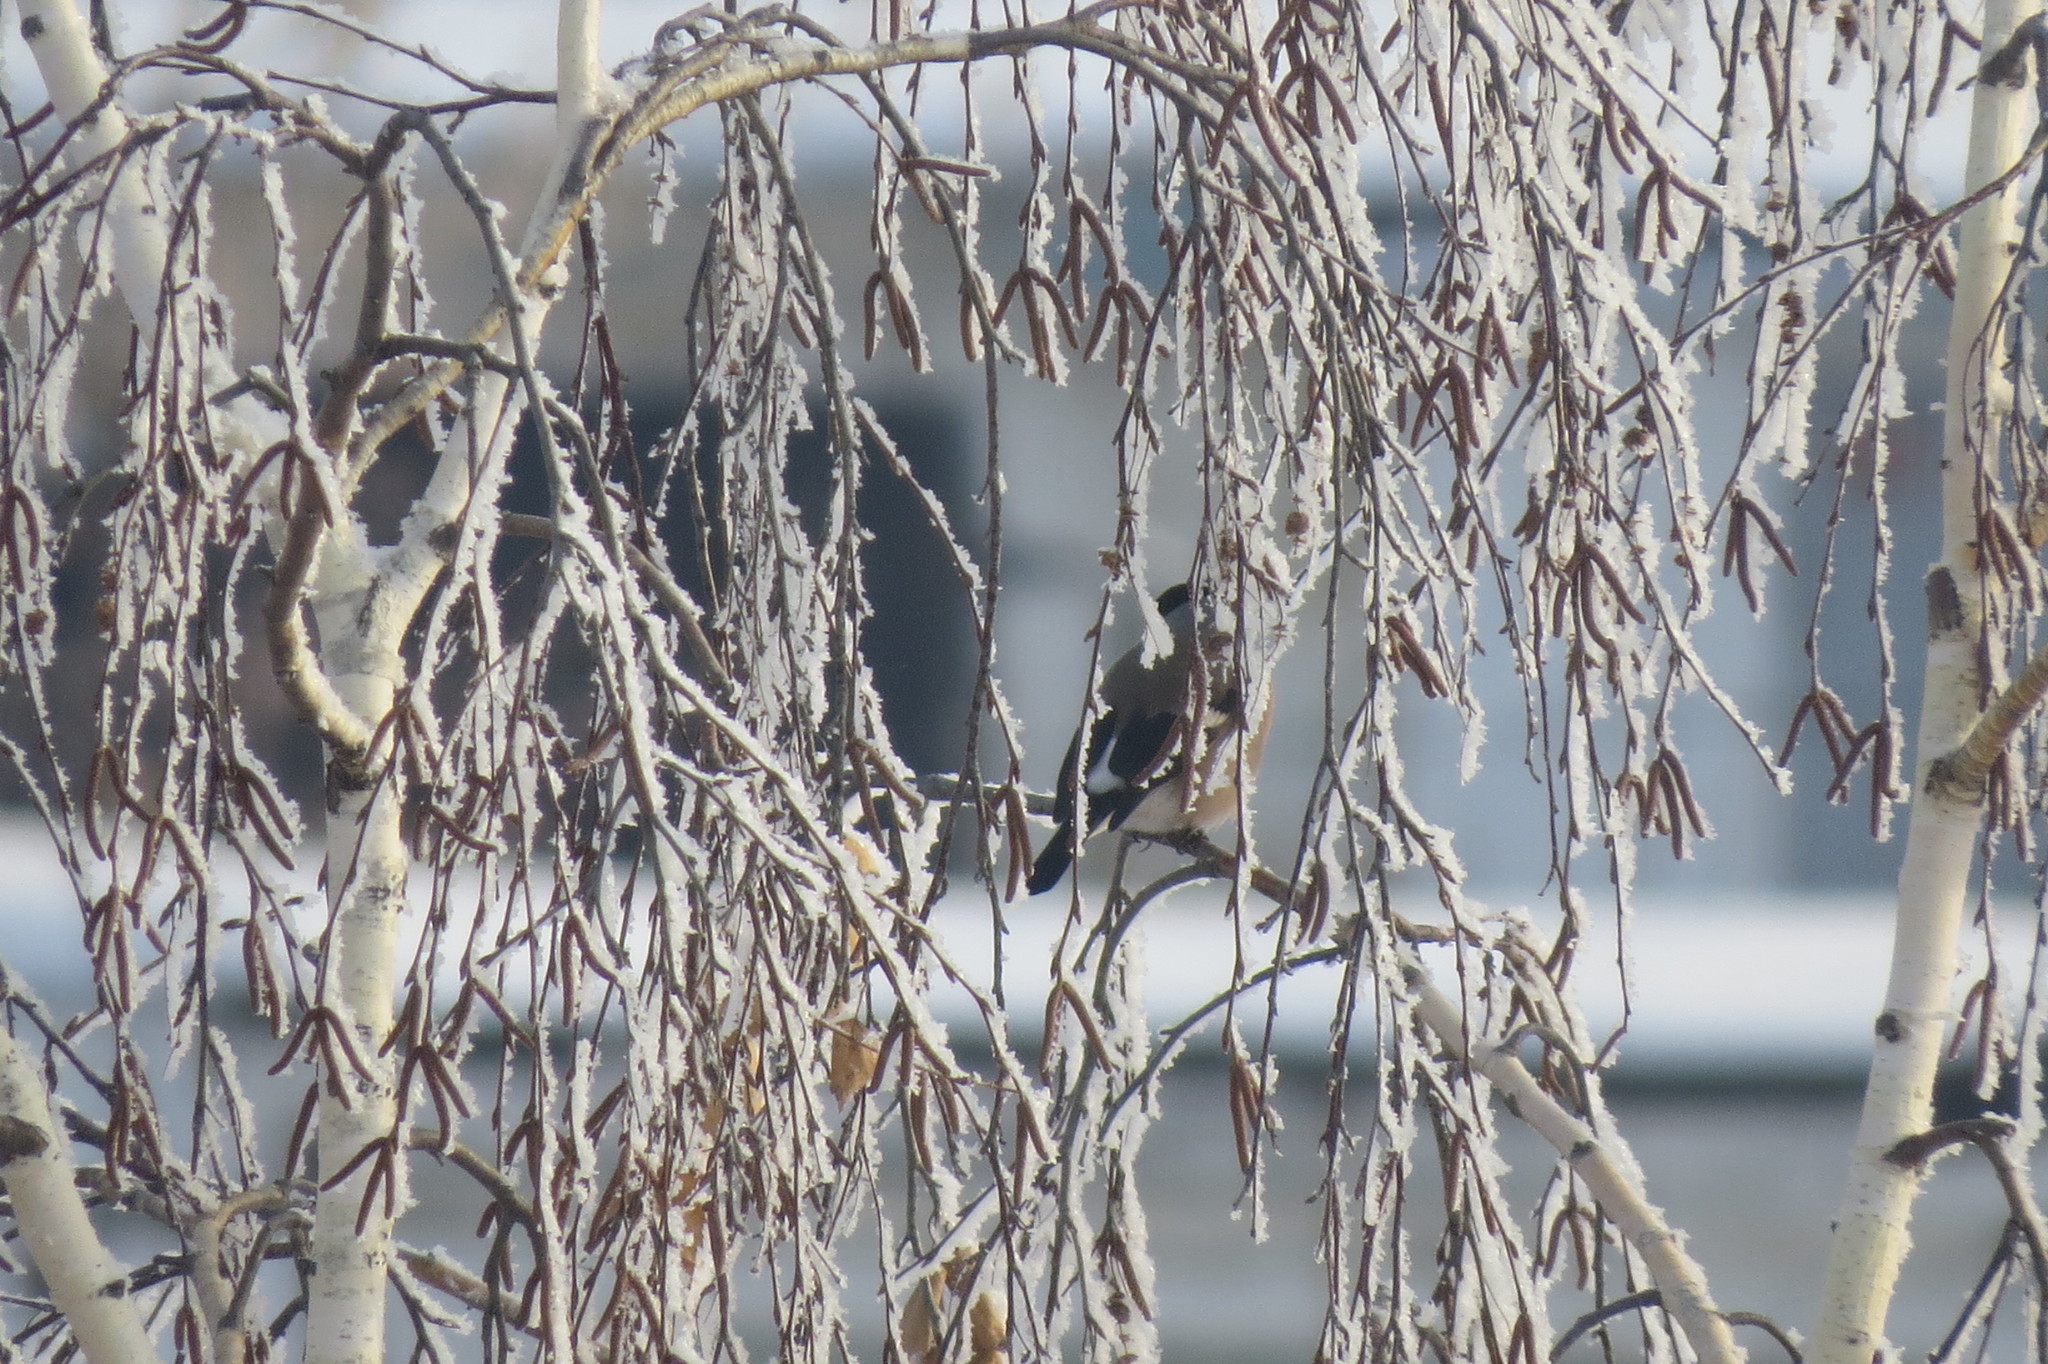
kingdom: Animalia
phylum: Chordata
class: Aves
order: Passeriformes
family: Fringillidae
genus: Pyrrhula
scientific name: Pyrrhula pyrrhula
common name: Eurasian bullfinch
